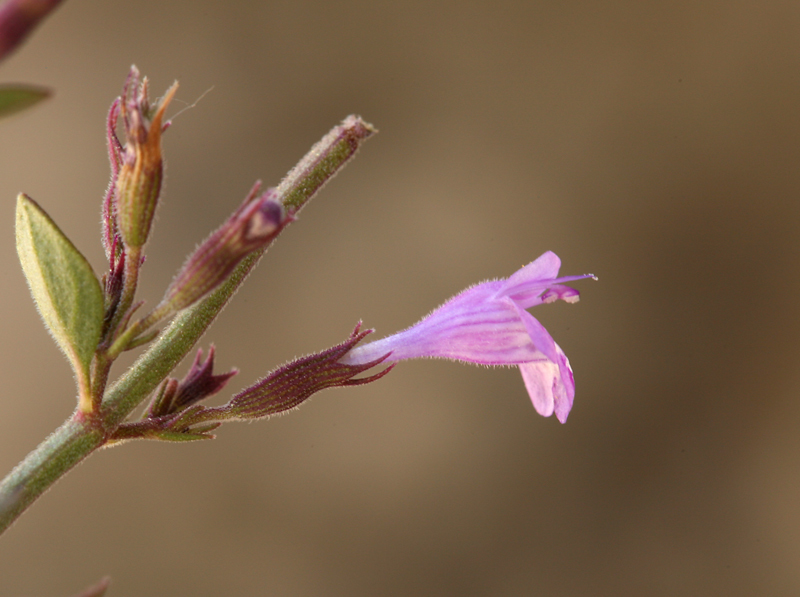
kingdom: Plantae
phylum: Tracheophyta
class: Magnoliopsida
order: Lamiales
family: Lamiaceae
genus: Hedeoma
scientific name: Hedeoma nana
